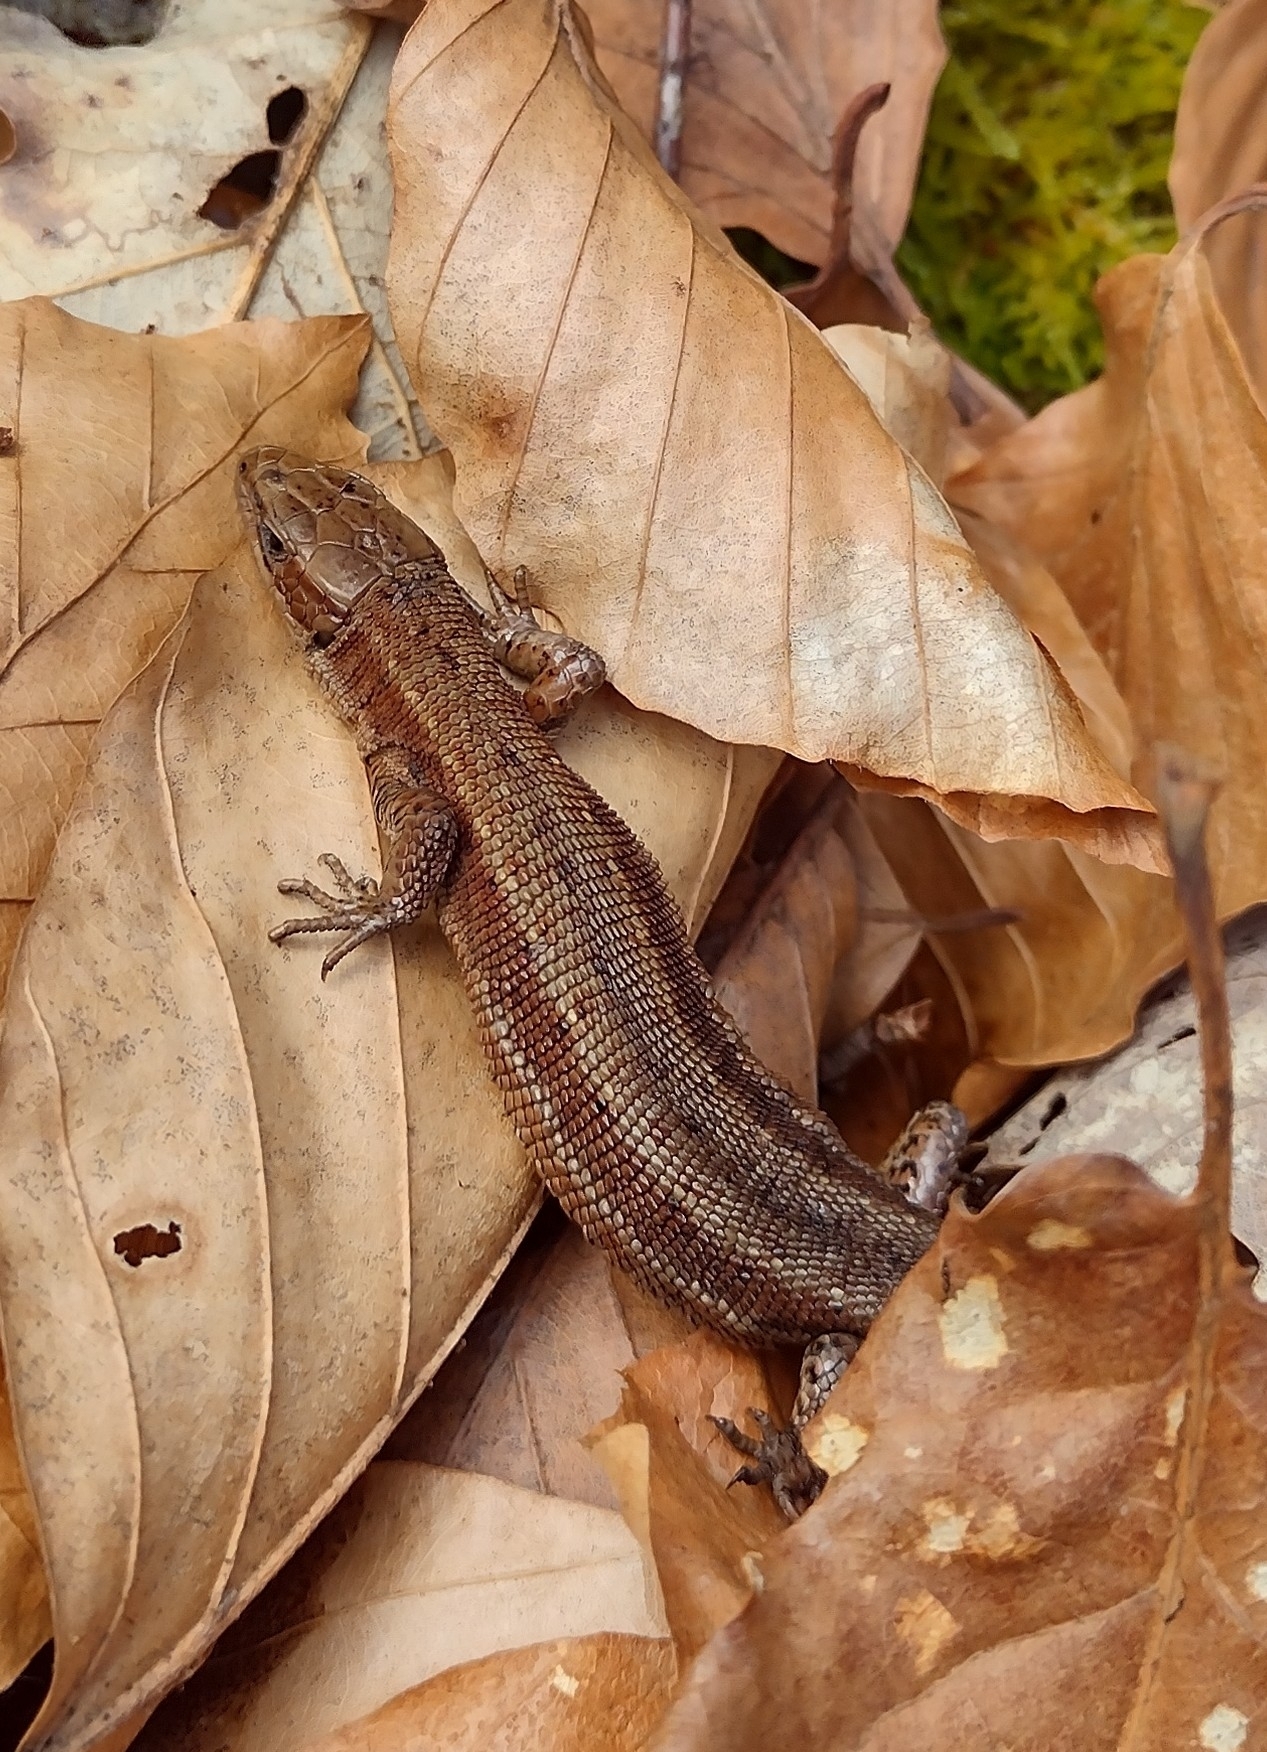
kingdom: Animalia
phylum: Chordata
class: Squamata
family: Lacertidae
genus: Zootoca
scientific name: Zootoca vivipara
